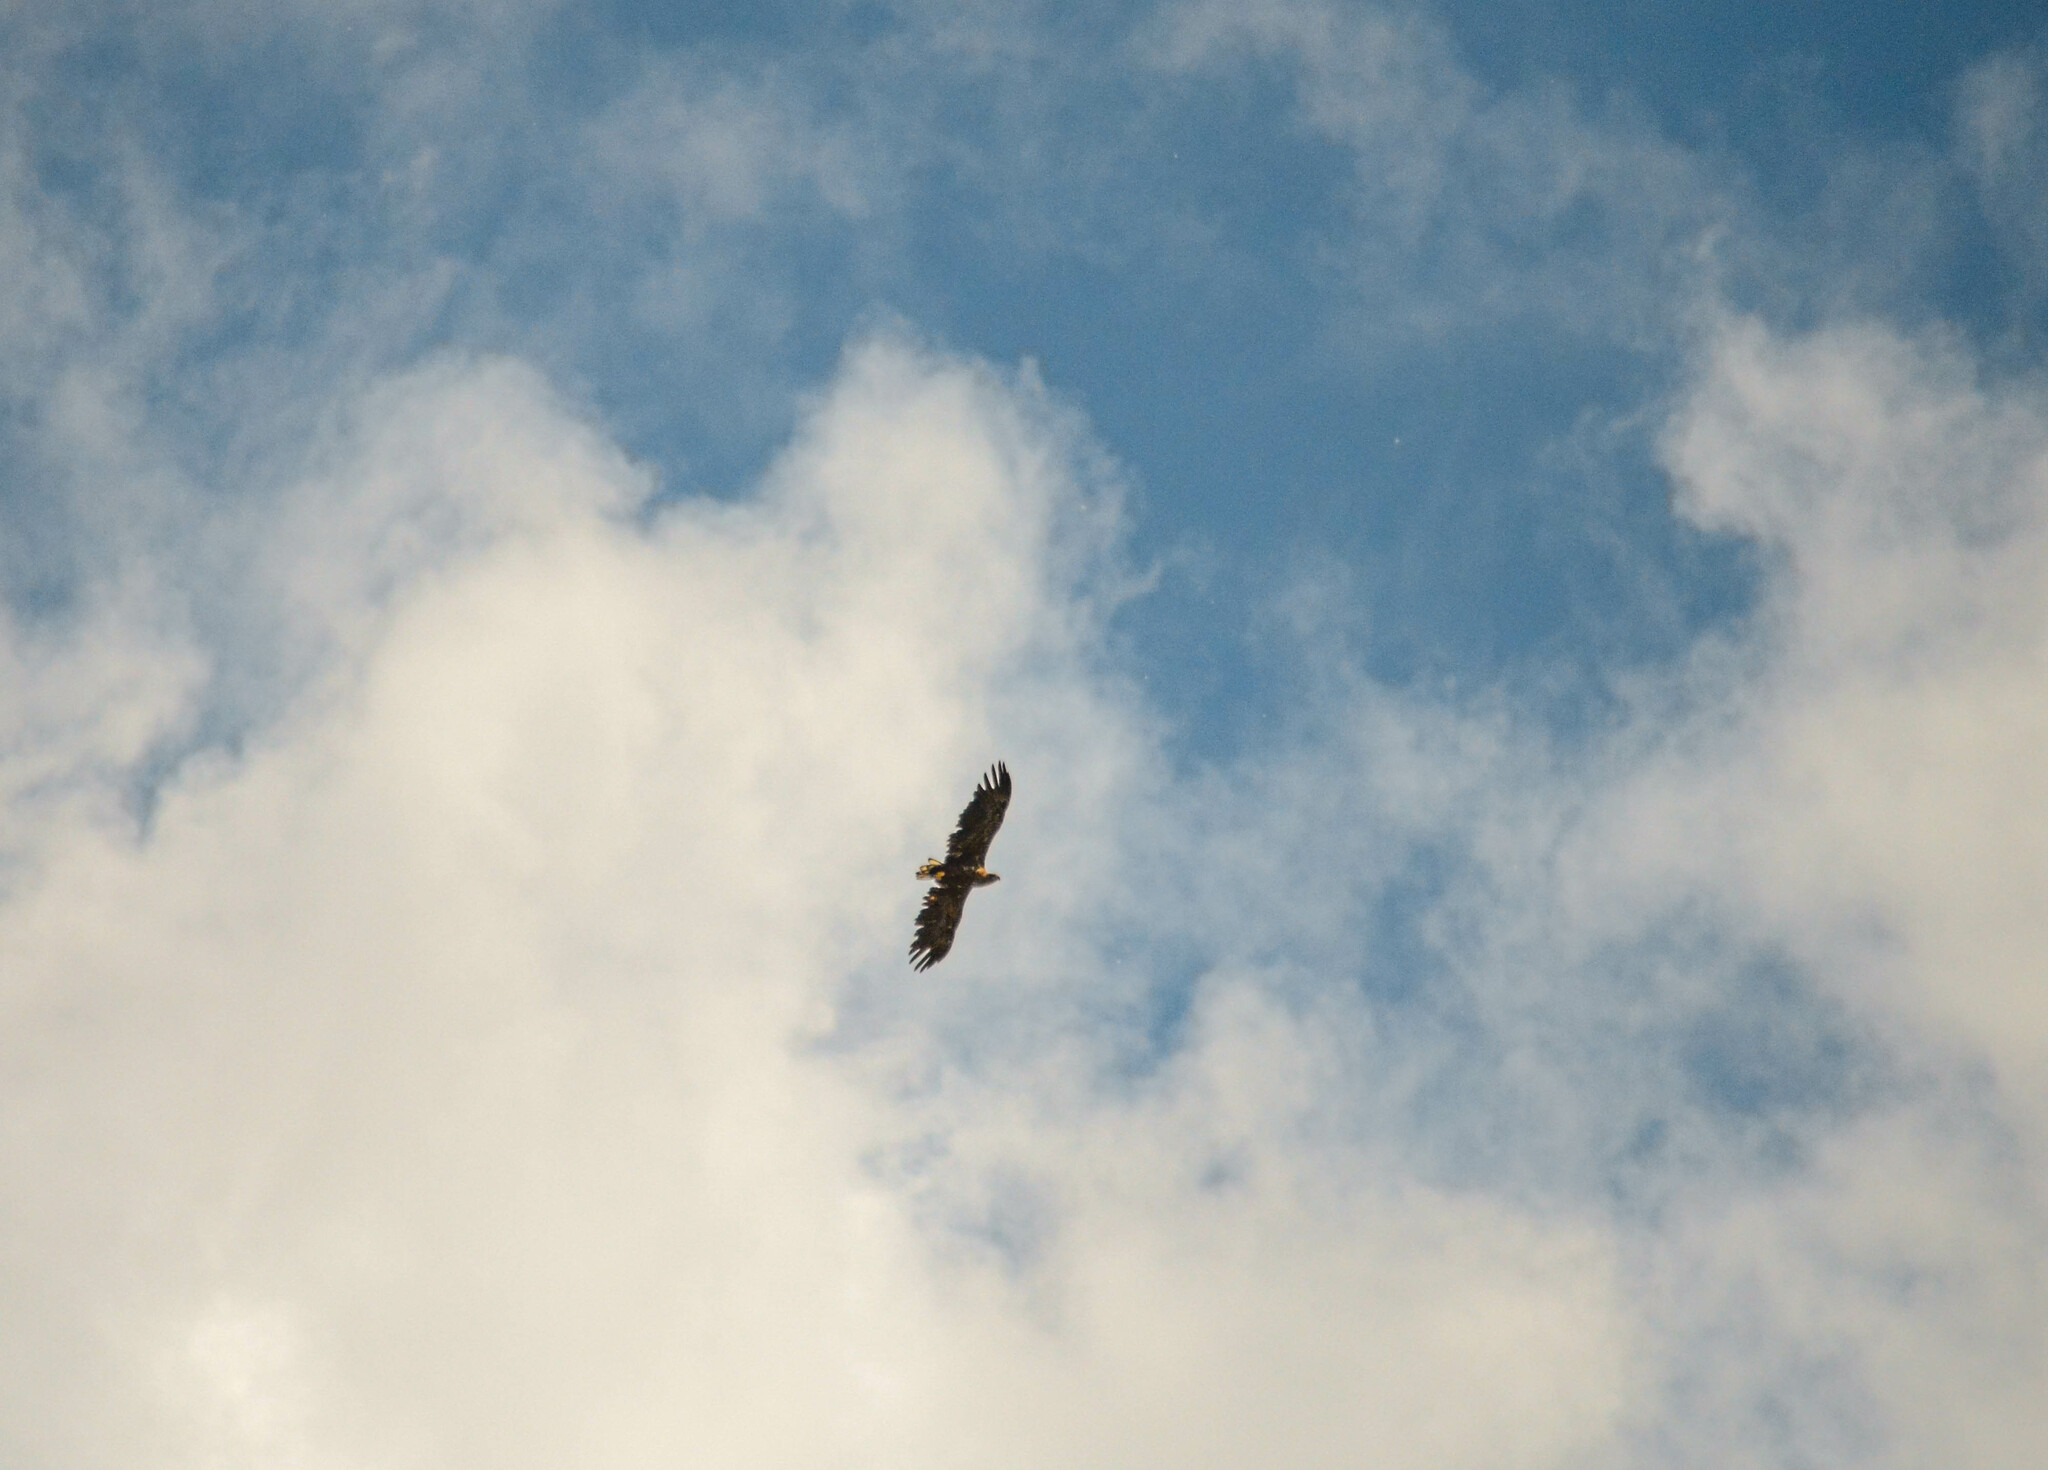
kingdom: Animalia
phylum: Chordata
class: Aves
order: Accipitriformes
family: Accipitridae
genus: Haliaeetus
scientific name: Haliaeetus albicilla
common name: White-tailed eagle
